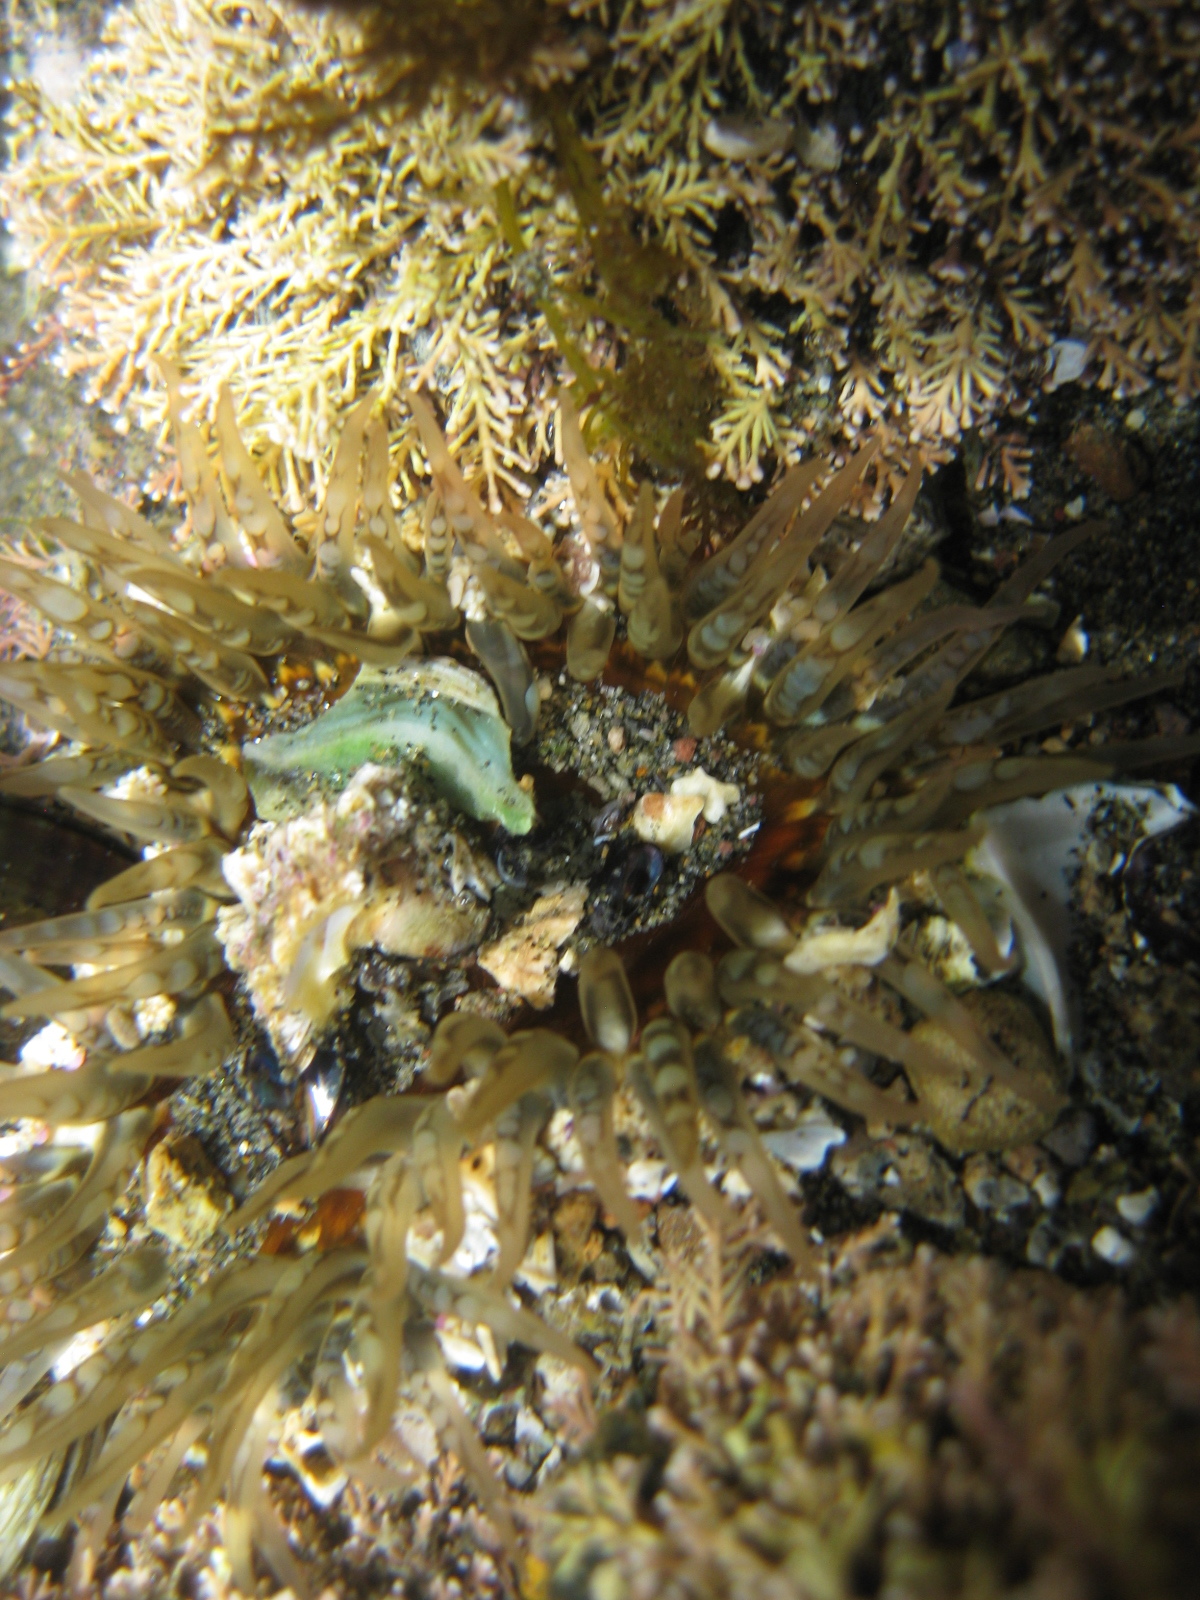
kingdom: Animalia
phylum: Cnidaria
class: Anthozoa
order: Actiniaria
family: Actiniidae
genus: Oulactis
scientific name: Oulactis muscosa
